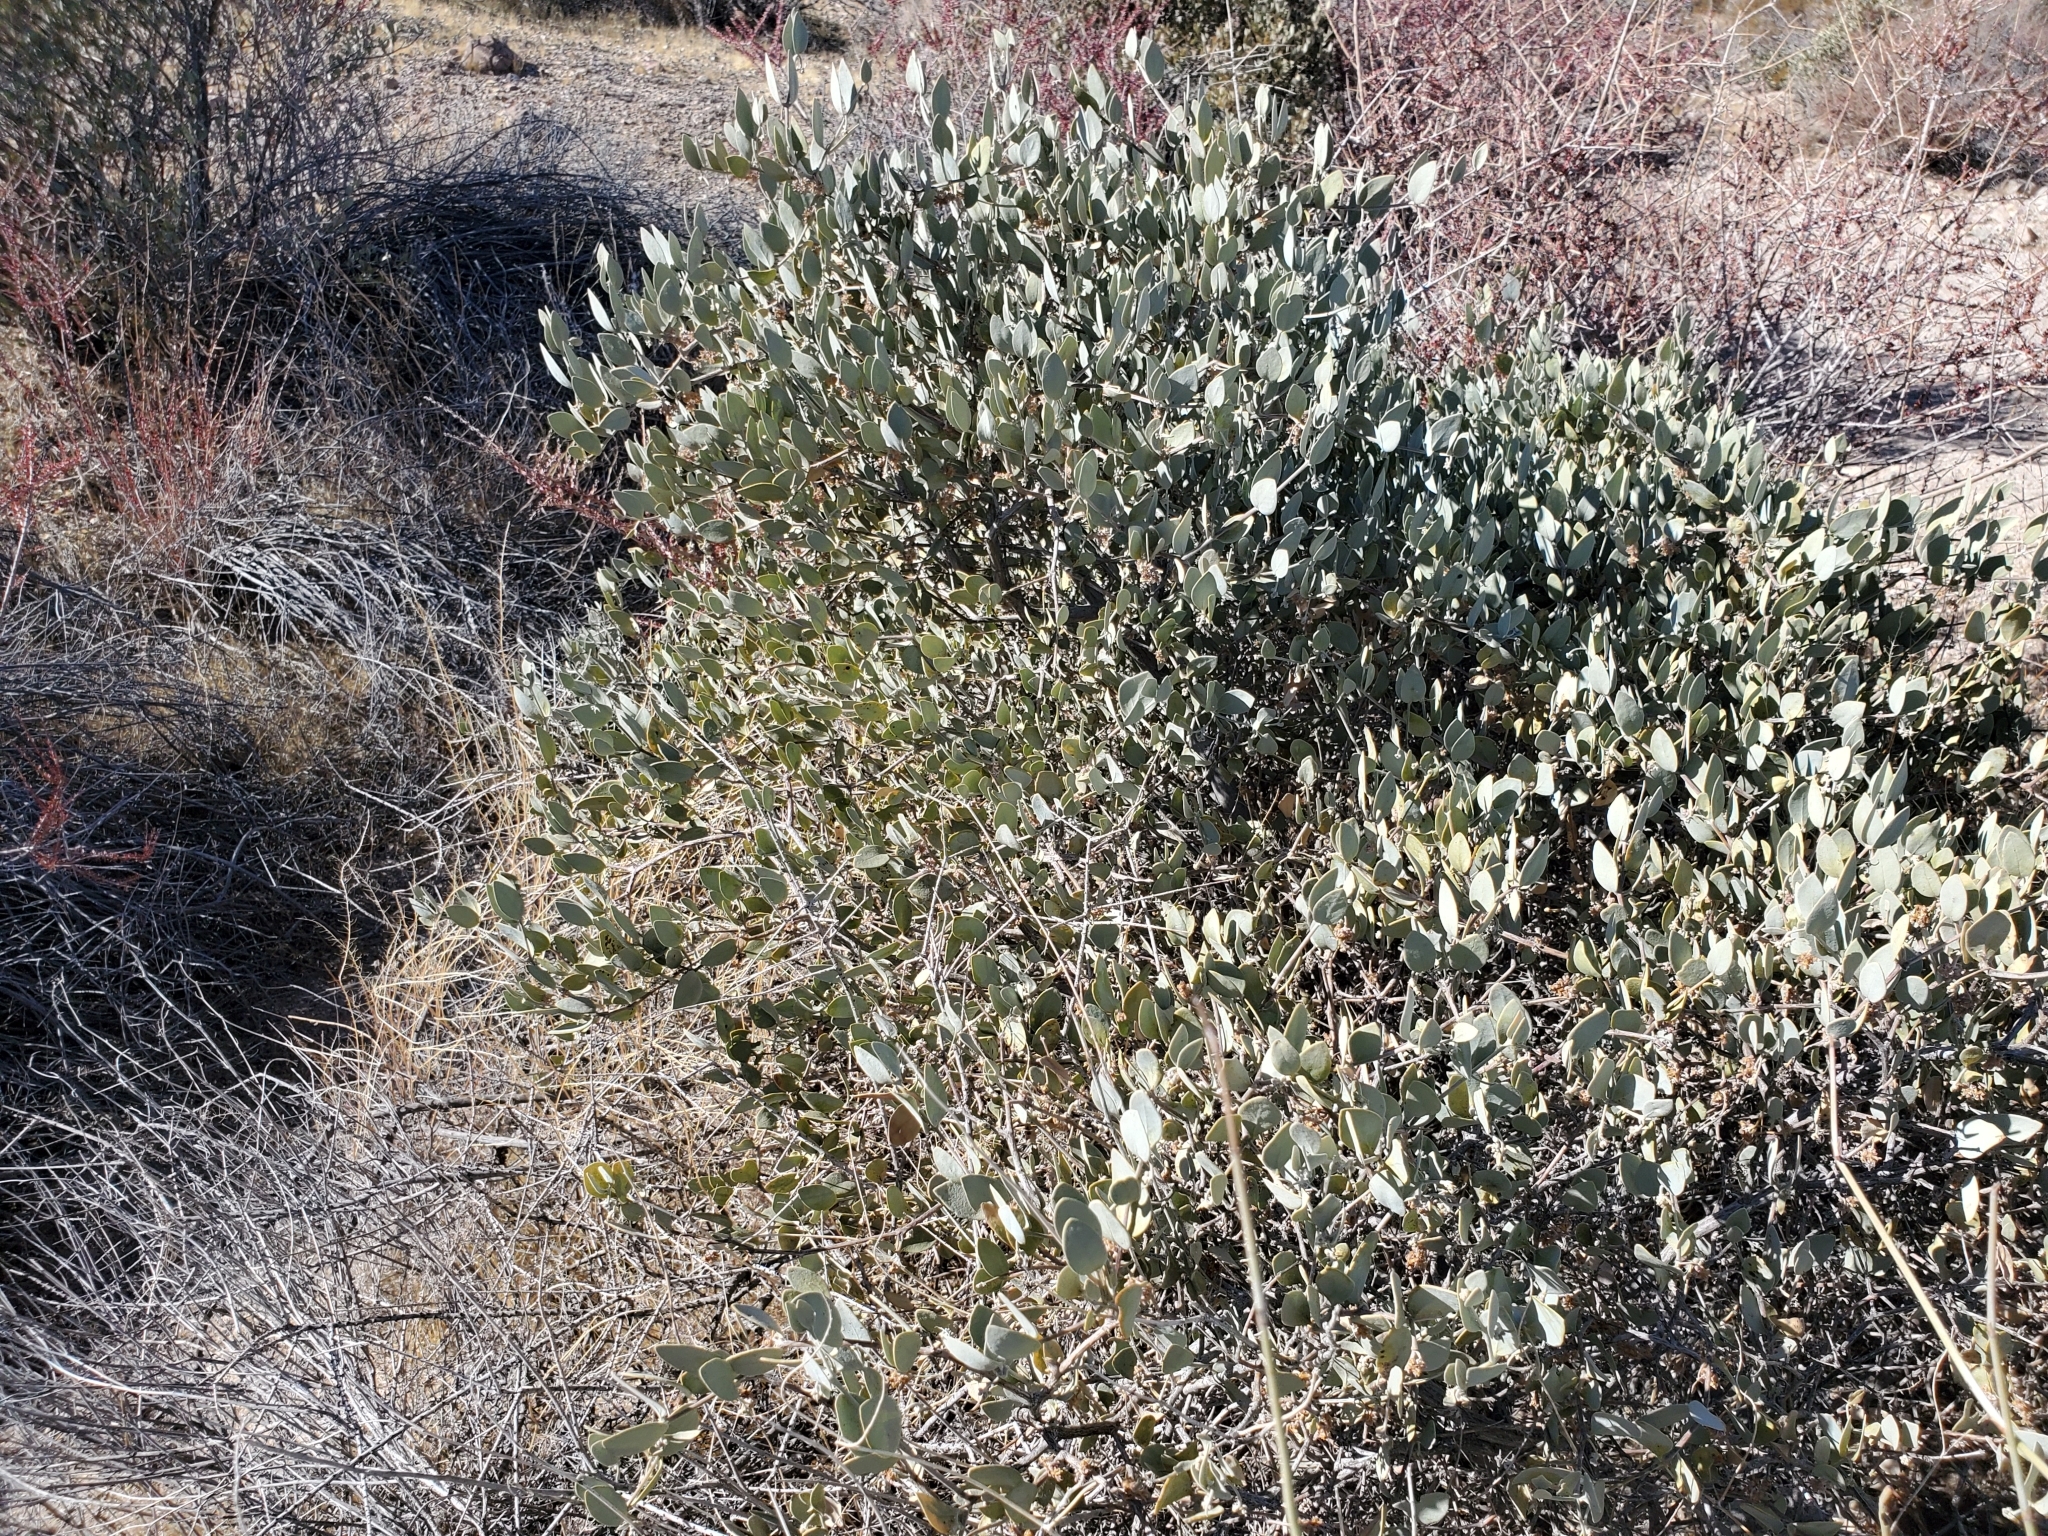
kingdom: Plantae
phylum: Tracheophyta
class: Magnoliopsida
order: Caryophyllales
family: Simmondsiaceae
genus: Simmondsia
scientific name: Simmondsia chinensis
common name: Jojoba
